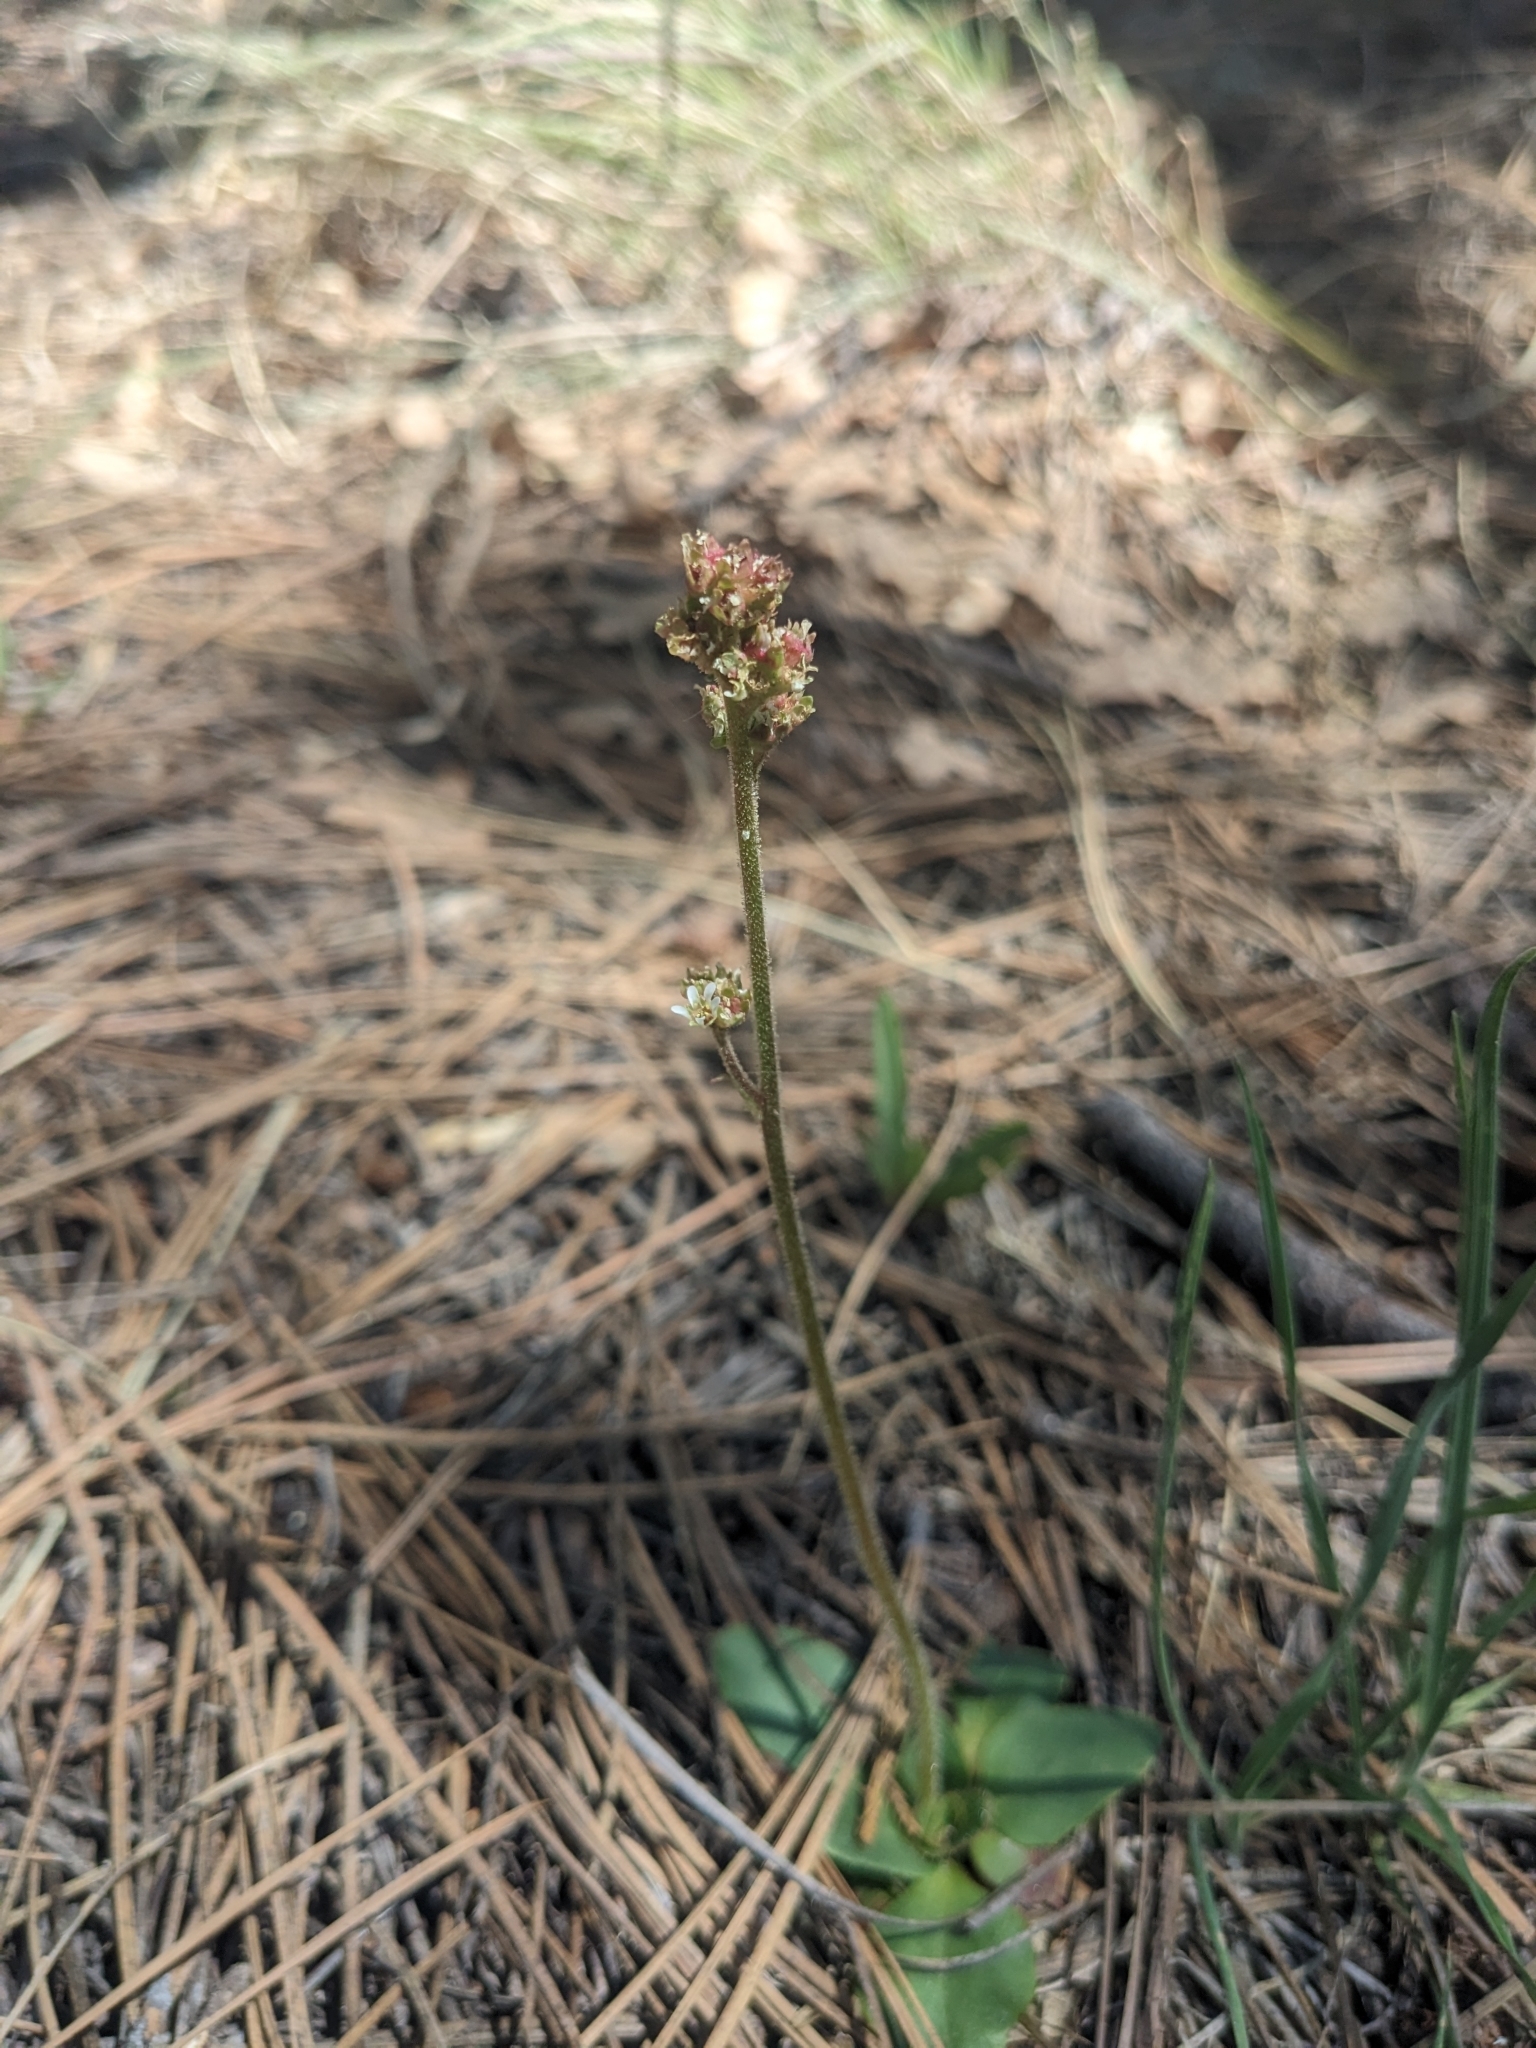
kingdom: Plantae
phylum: Tracheophyta
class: Magnoliopsida
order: Saxifragales
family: Saxifragaceae
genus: Micranthes
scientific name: Micranthes rhomboidea
